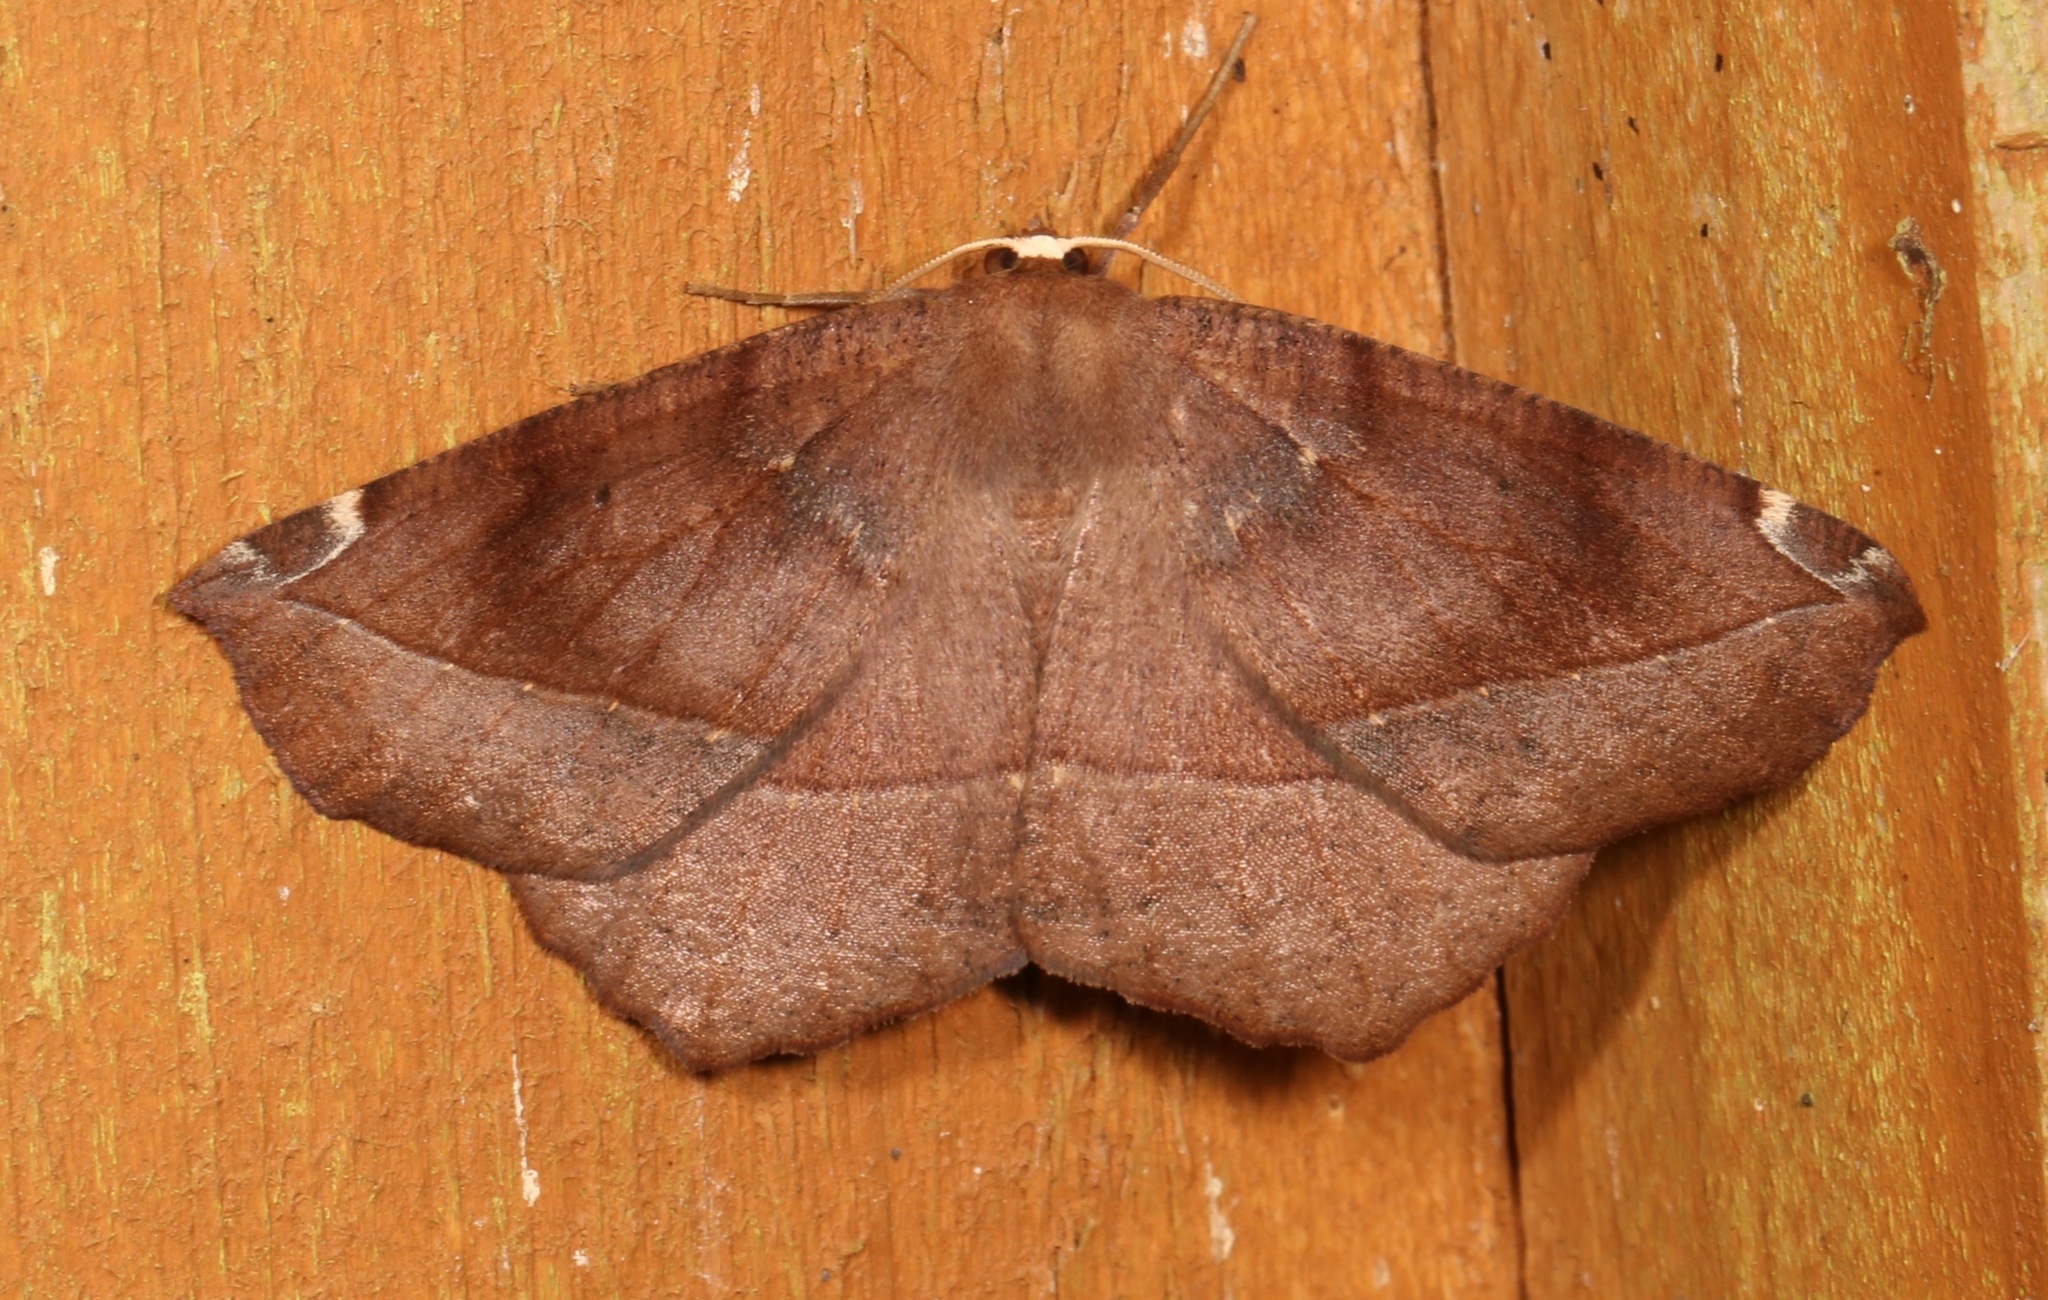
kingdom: Animalia
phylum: Arthropoda
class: Insecta
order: Lepidoptera
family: Geometridae
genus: Eutrapela
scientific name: Eutrapela clemataria
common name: Curved-toothed geometer
